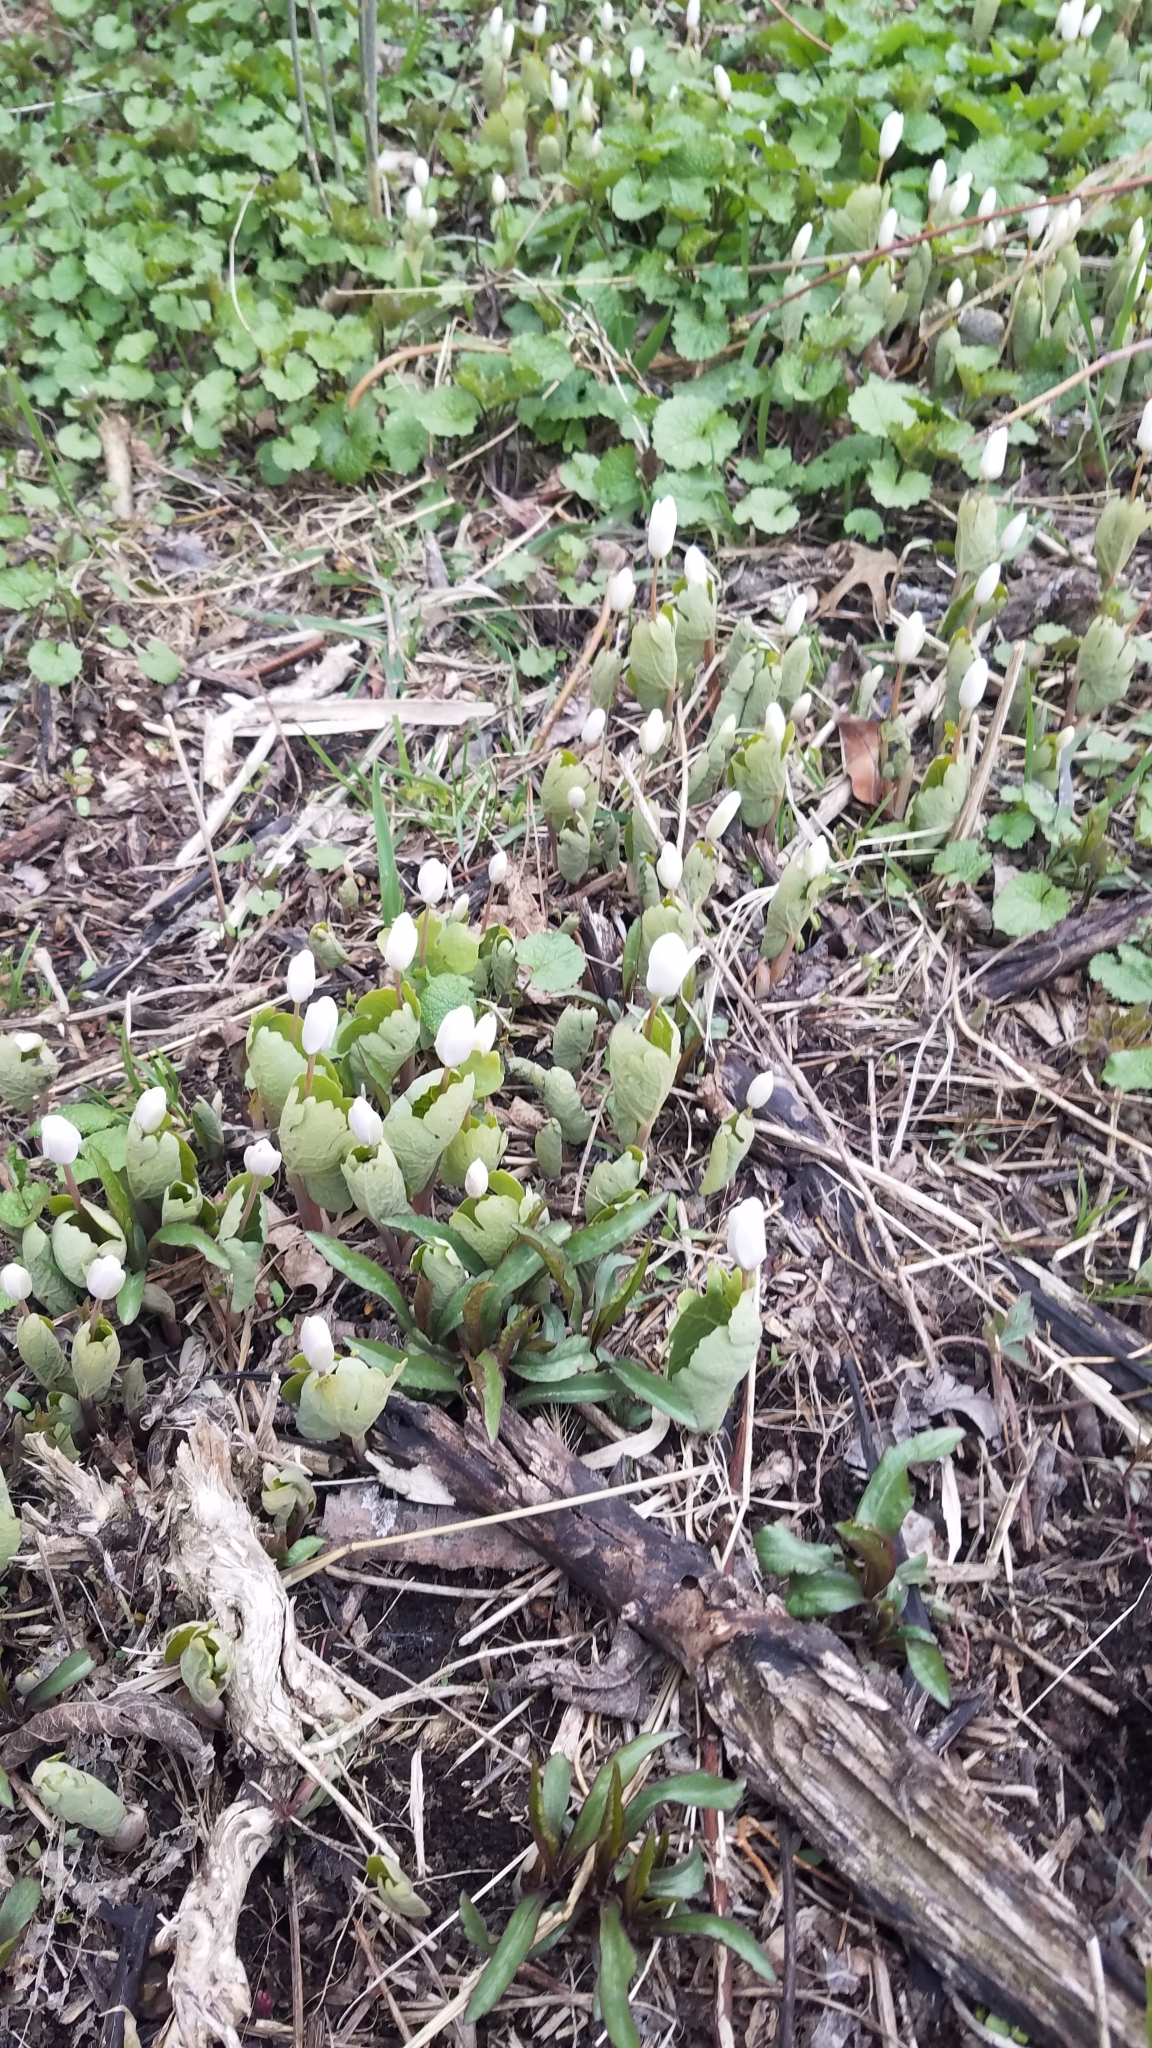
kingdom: Plantae
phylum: Tracheophyta
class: Magnoliopsida
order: Ranunculales
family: Papaveraceae
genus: Sanguinaria
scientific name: Sanguinaria canadensis
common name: Bloodroot
